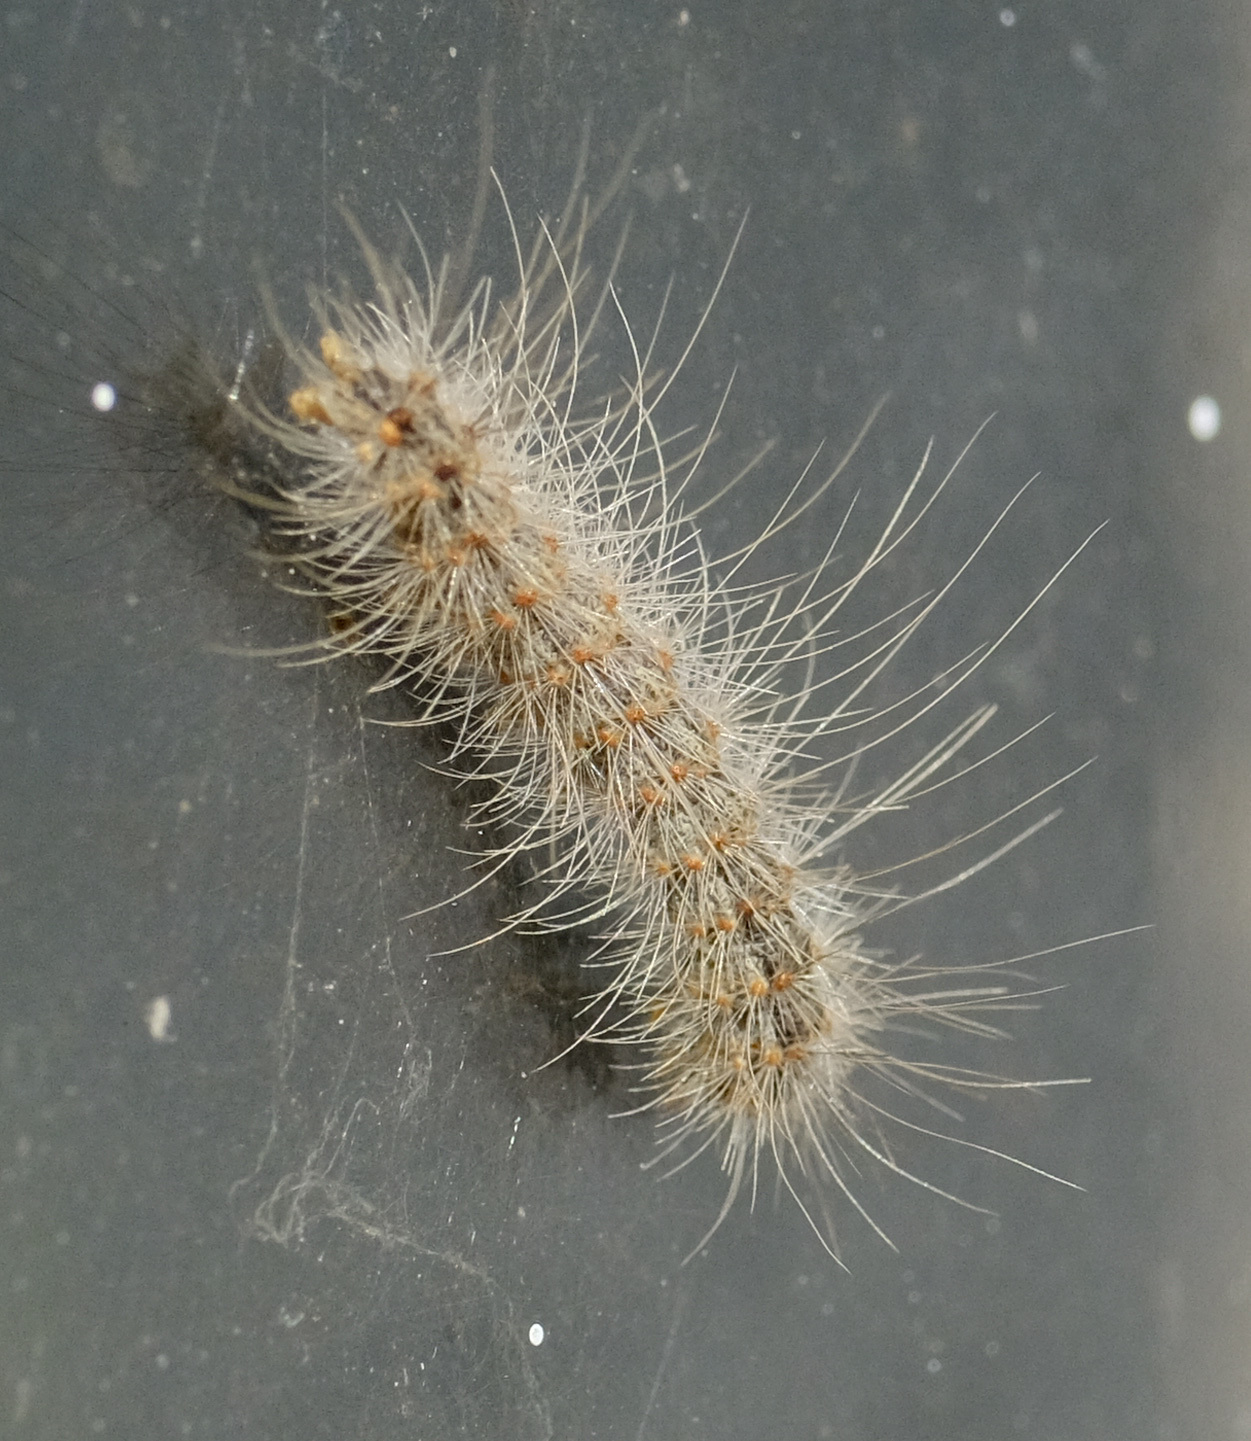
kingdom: Animalia
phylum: Arthropoda
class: Insecta
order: Lepidoptera
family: Erebidae
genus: Hyphantria
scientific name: Hyphantria cunea
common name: American white moth
